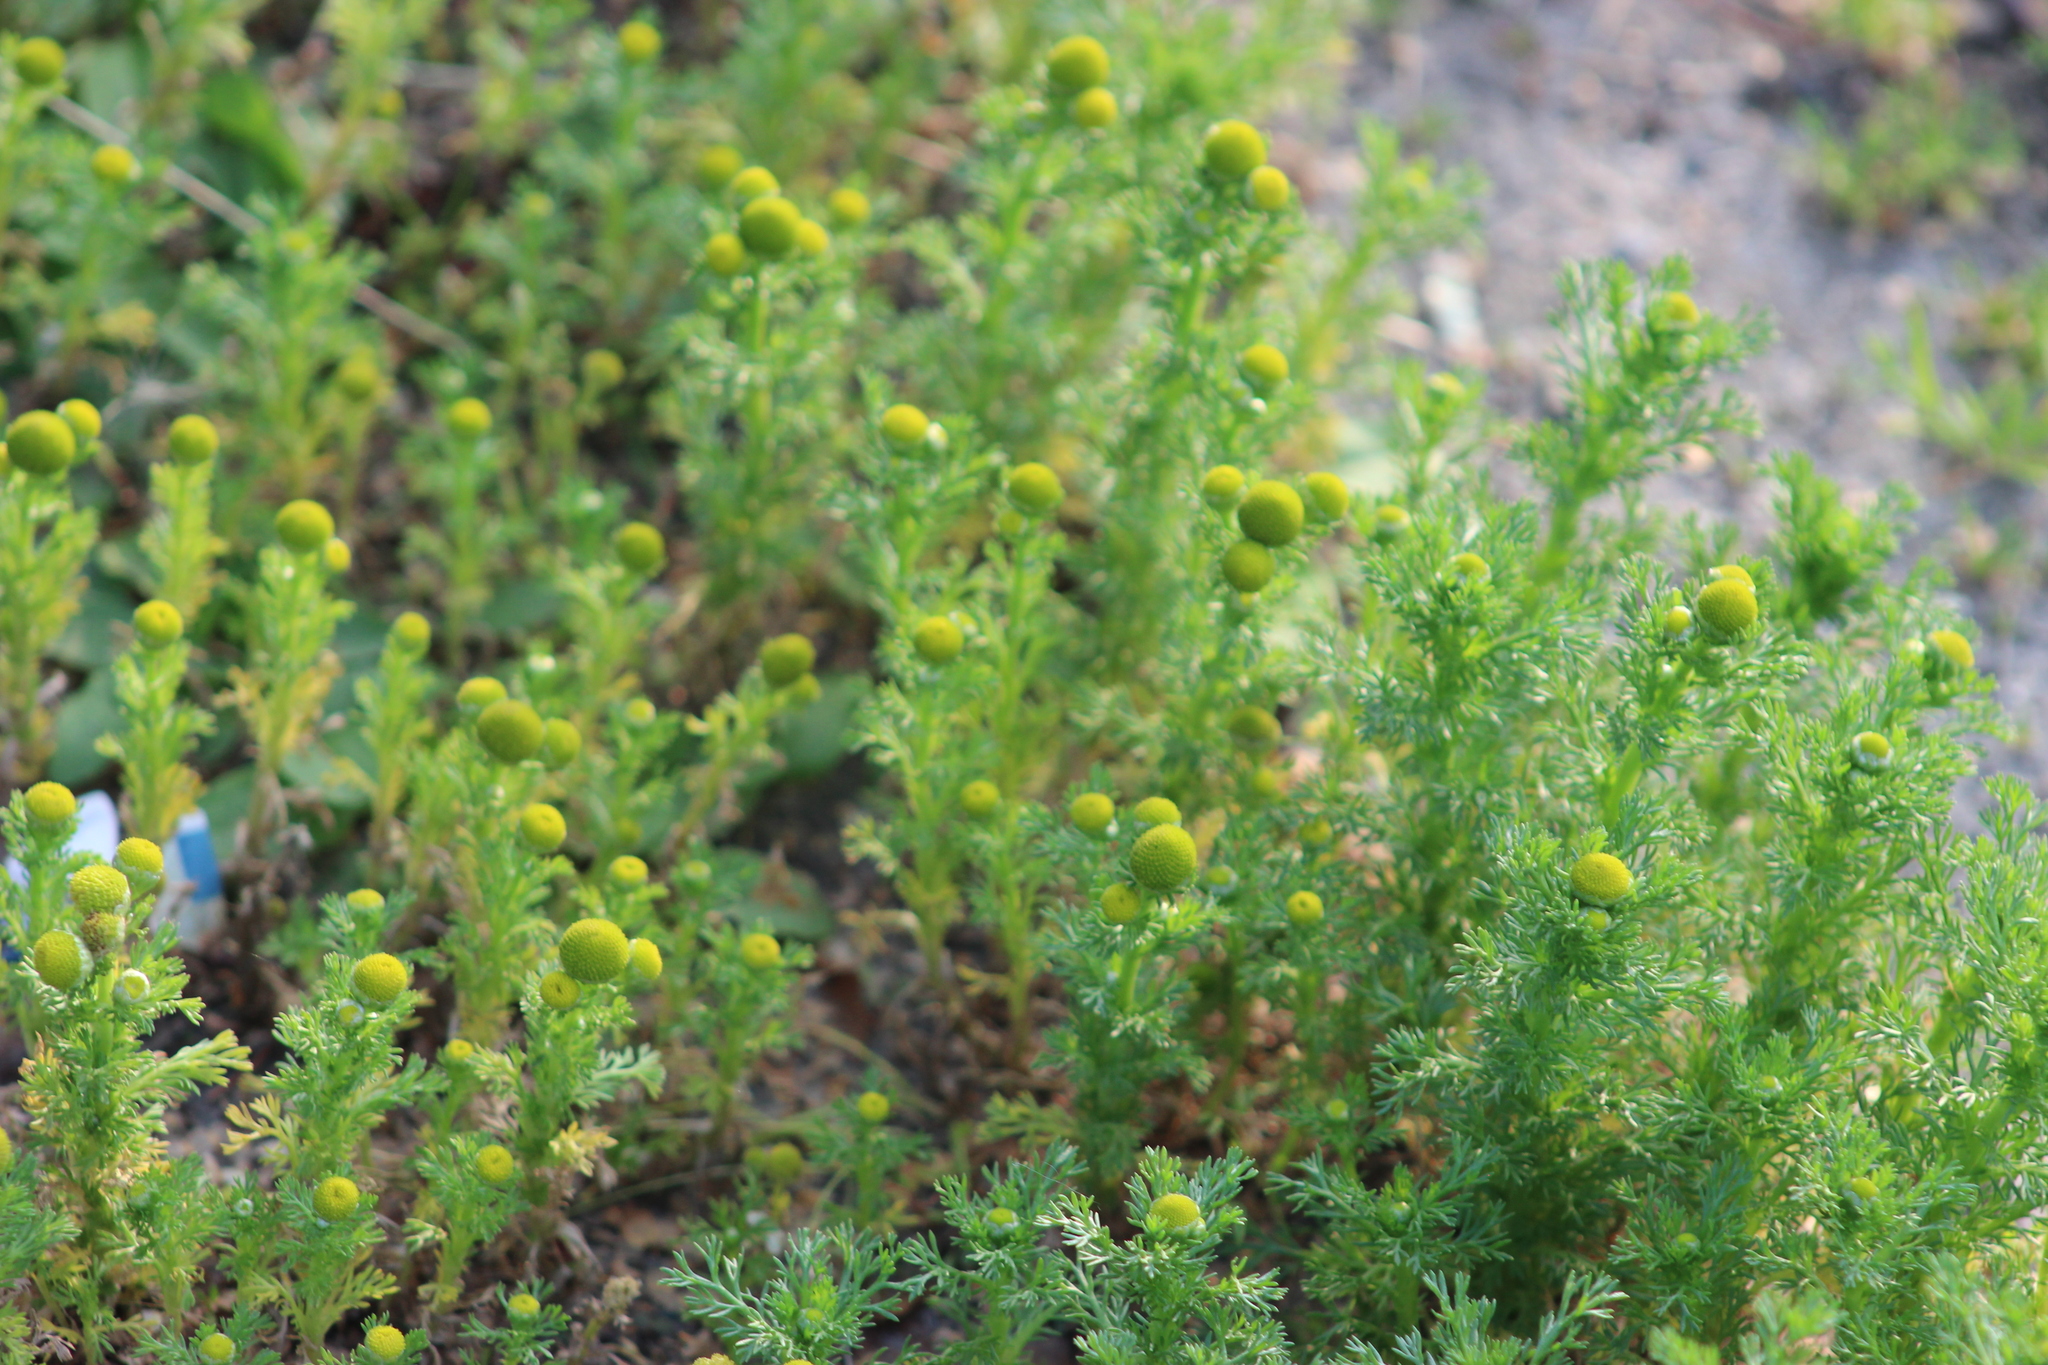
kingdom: Plantae
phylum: Tracheophyta
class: Magnoliopsida
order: Asterales
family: Asteraceae
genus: Matricaria
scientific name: Matricaria discoidea
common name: Disc mayweed
